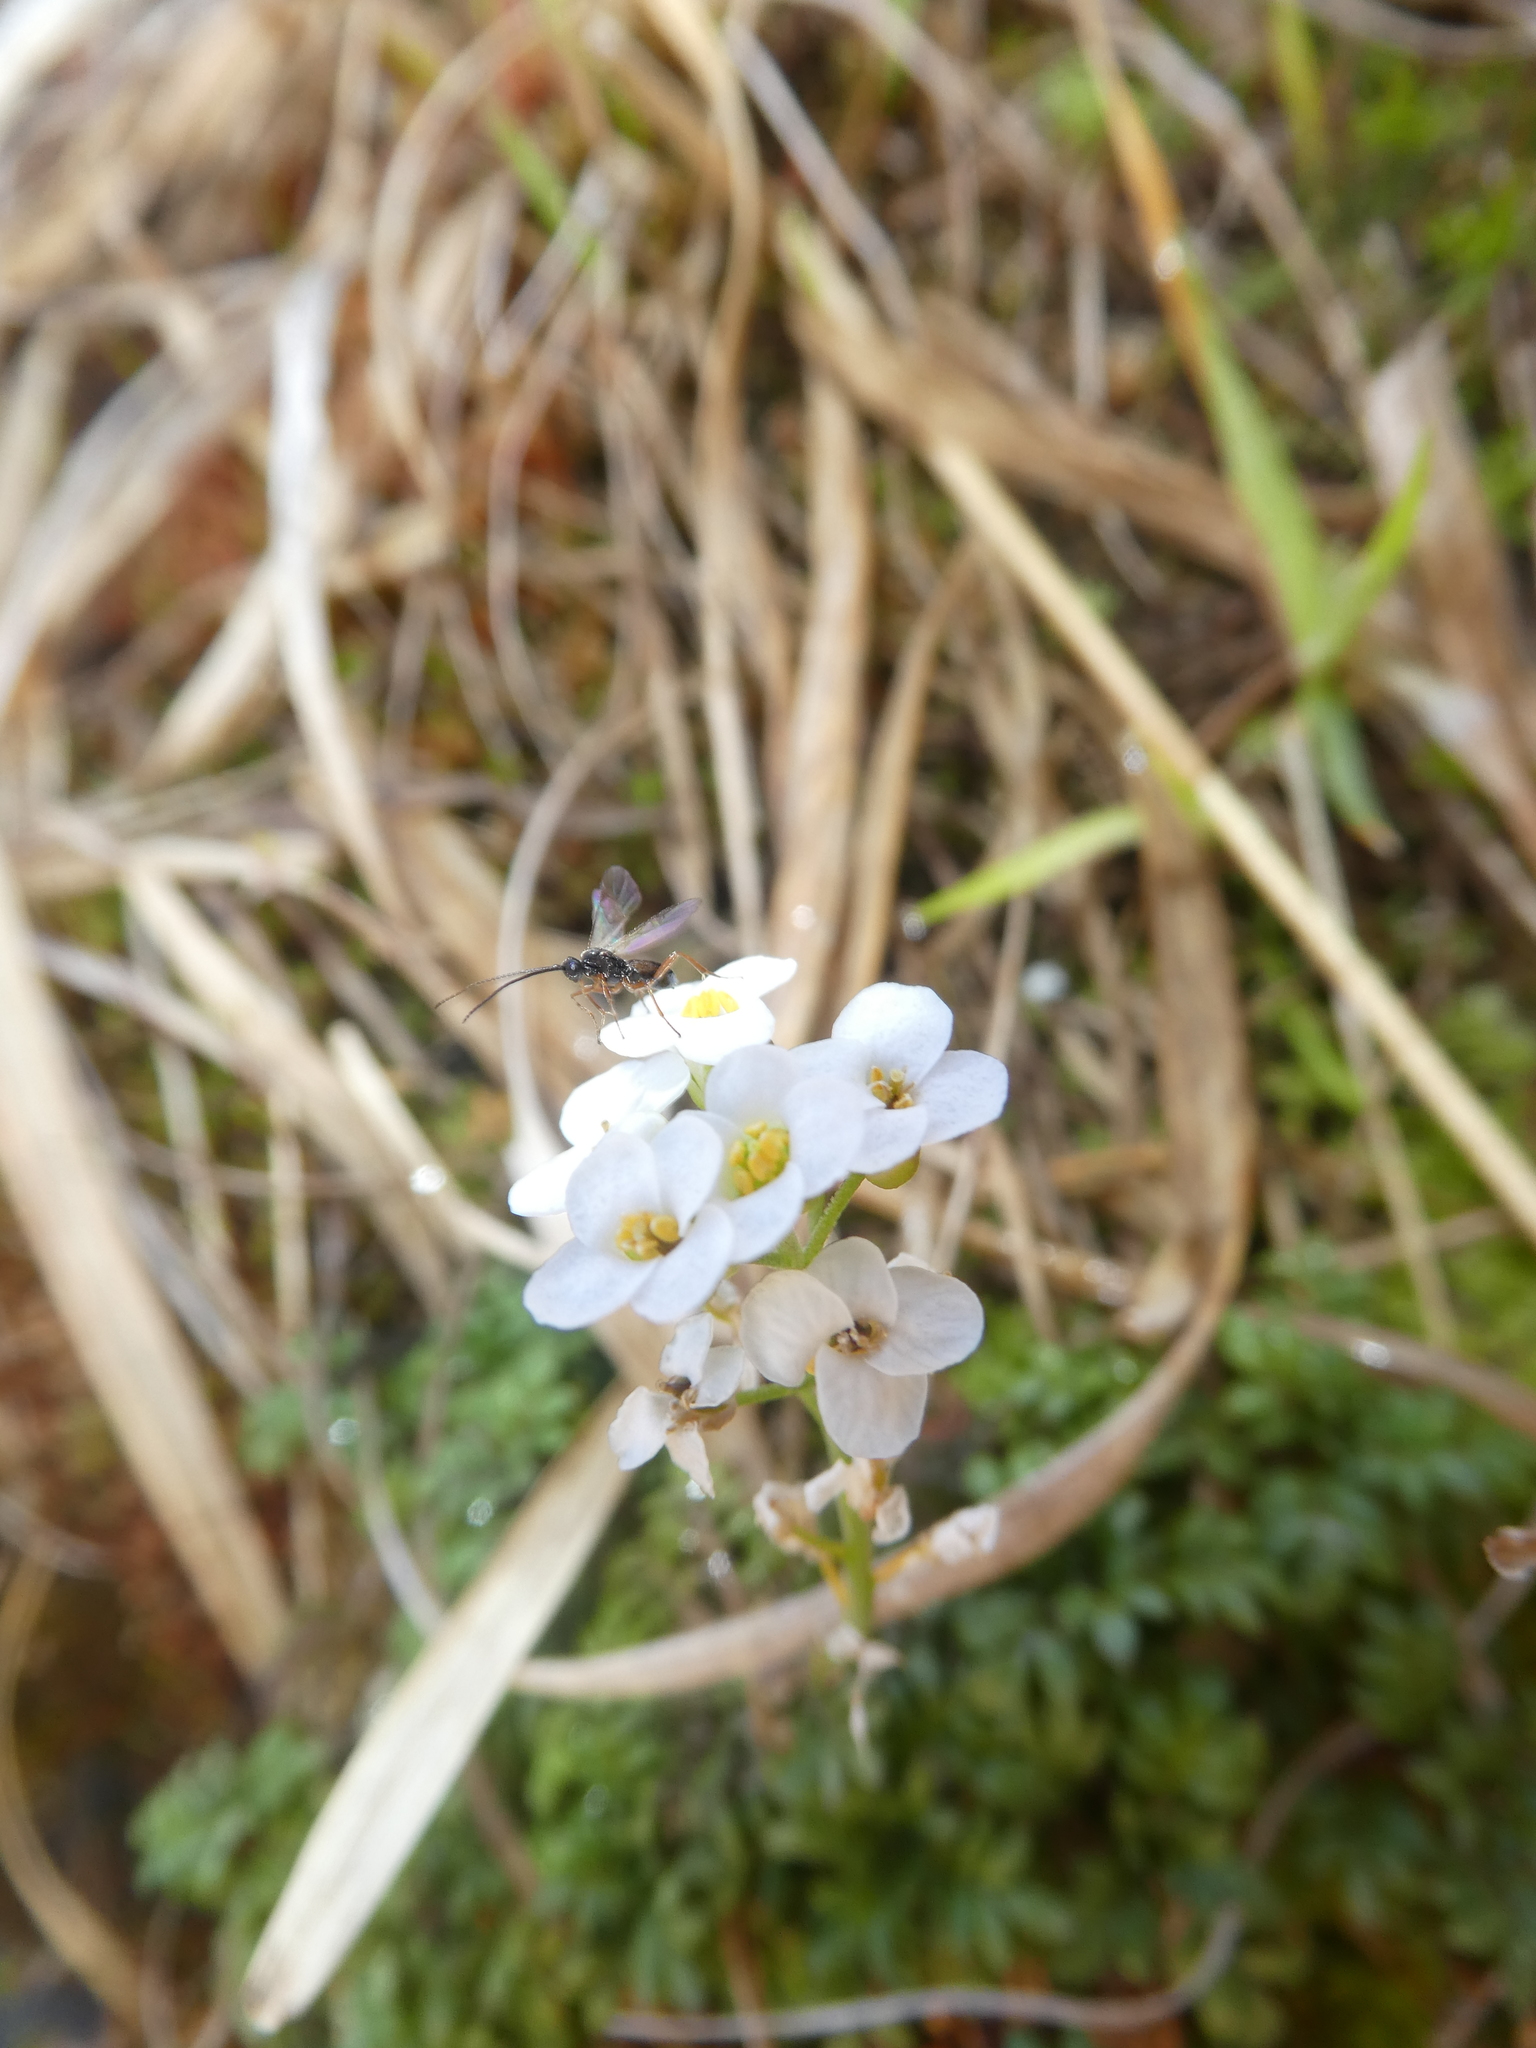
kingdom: Plantae
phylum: Tracheophyta
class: Magnoliopsida
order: Brassicales
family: Brassicaceae
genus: Hornungia
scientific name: Hornungia alpina
